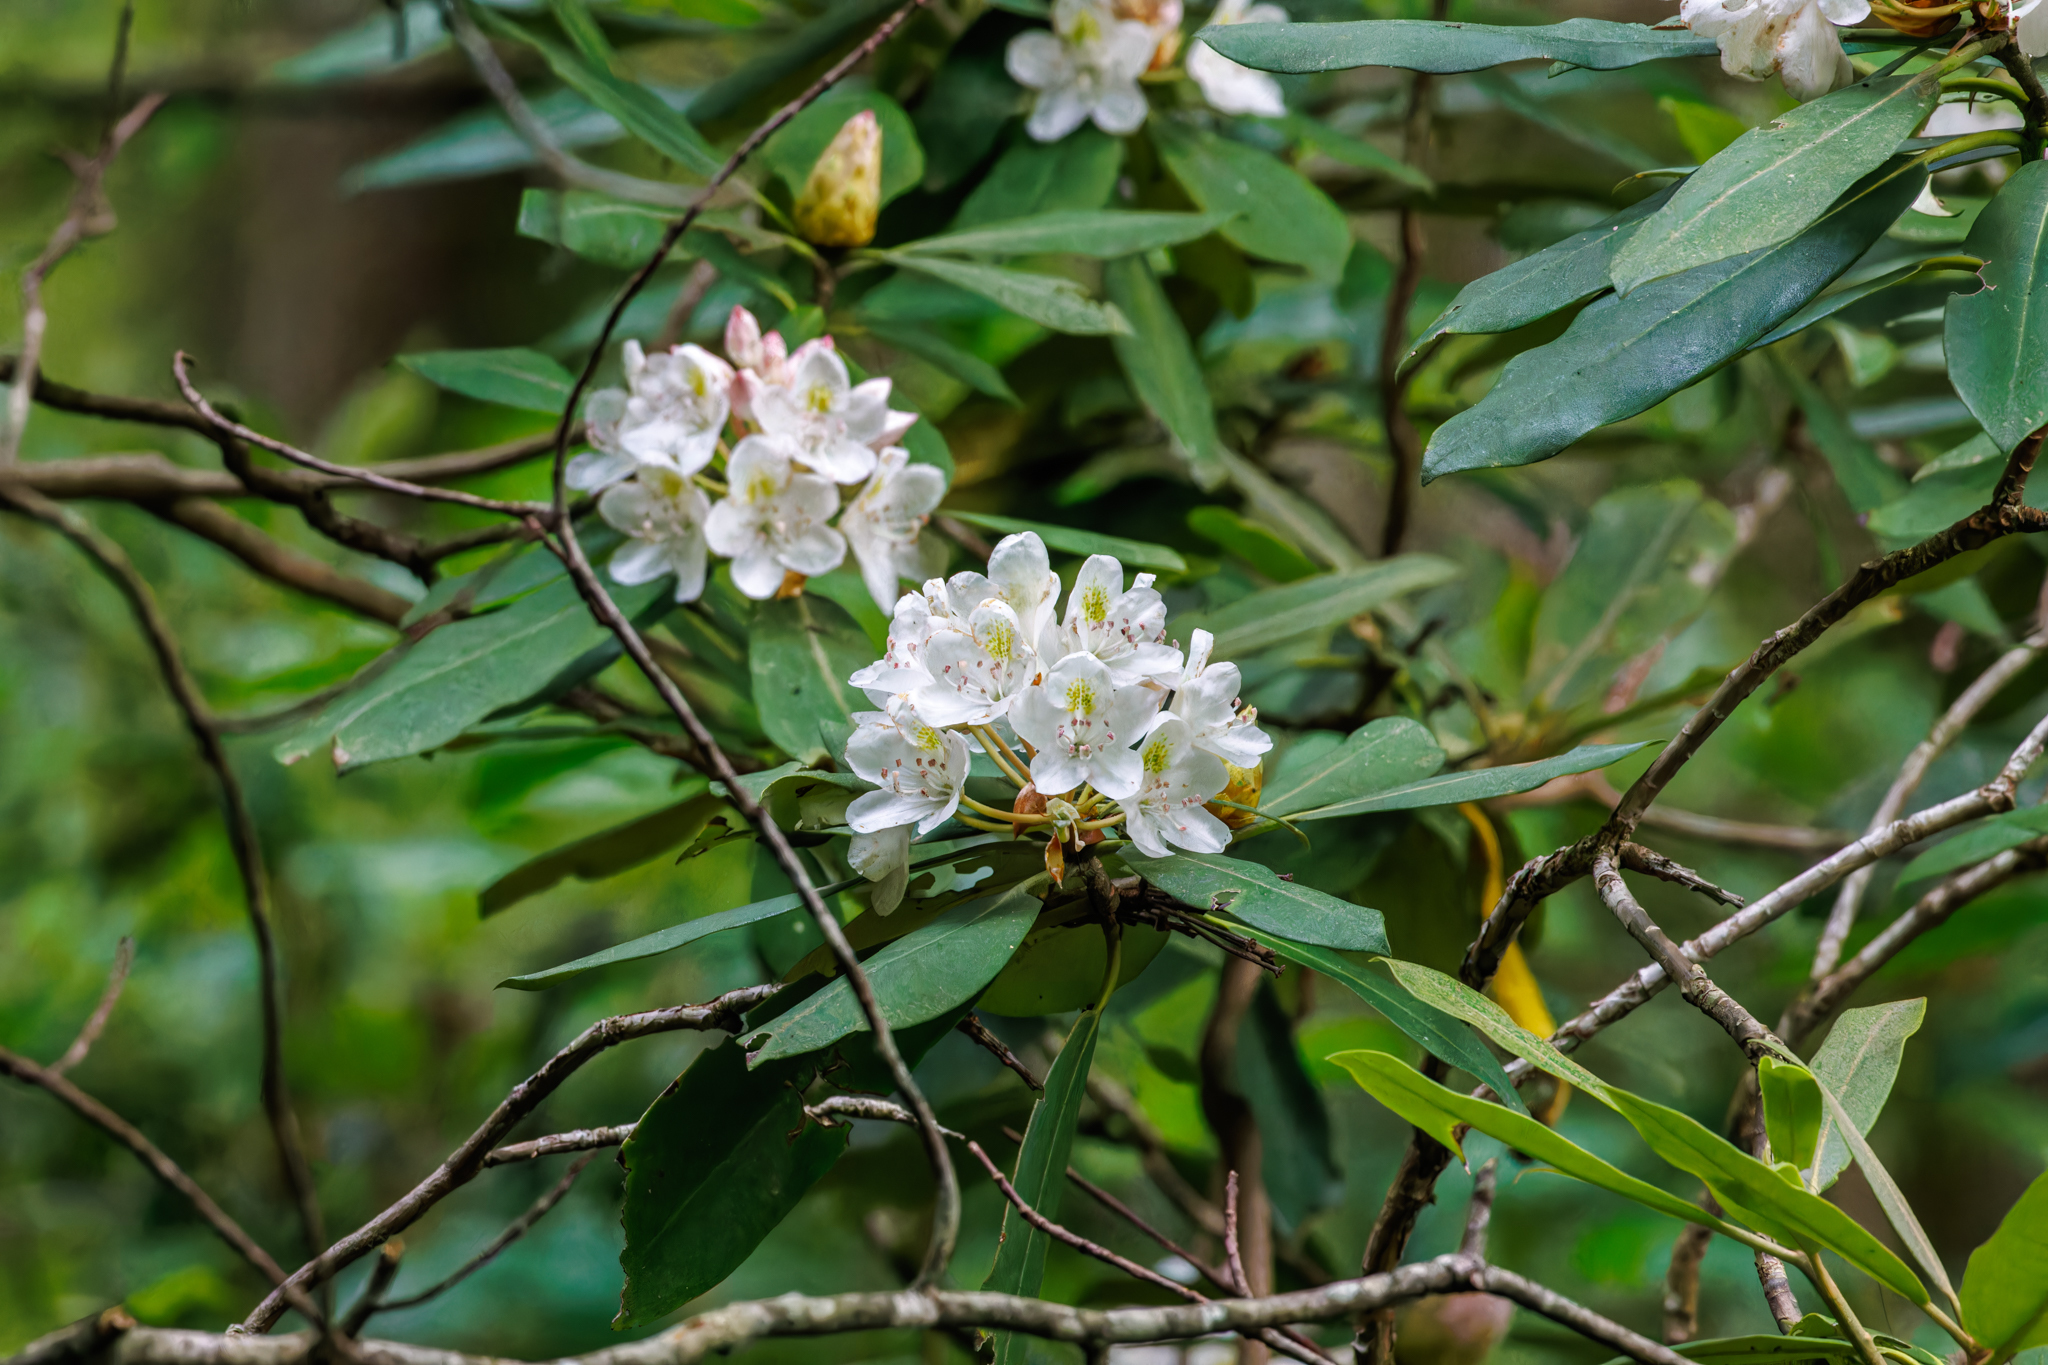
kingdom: Plantae
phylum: Tracheophyta
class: Magnoliopsida
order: Ericales
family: Ericaceae
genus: Rhododendron
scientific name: Rhododendron maximum
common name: Great rhododendron
